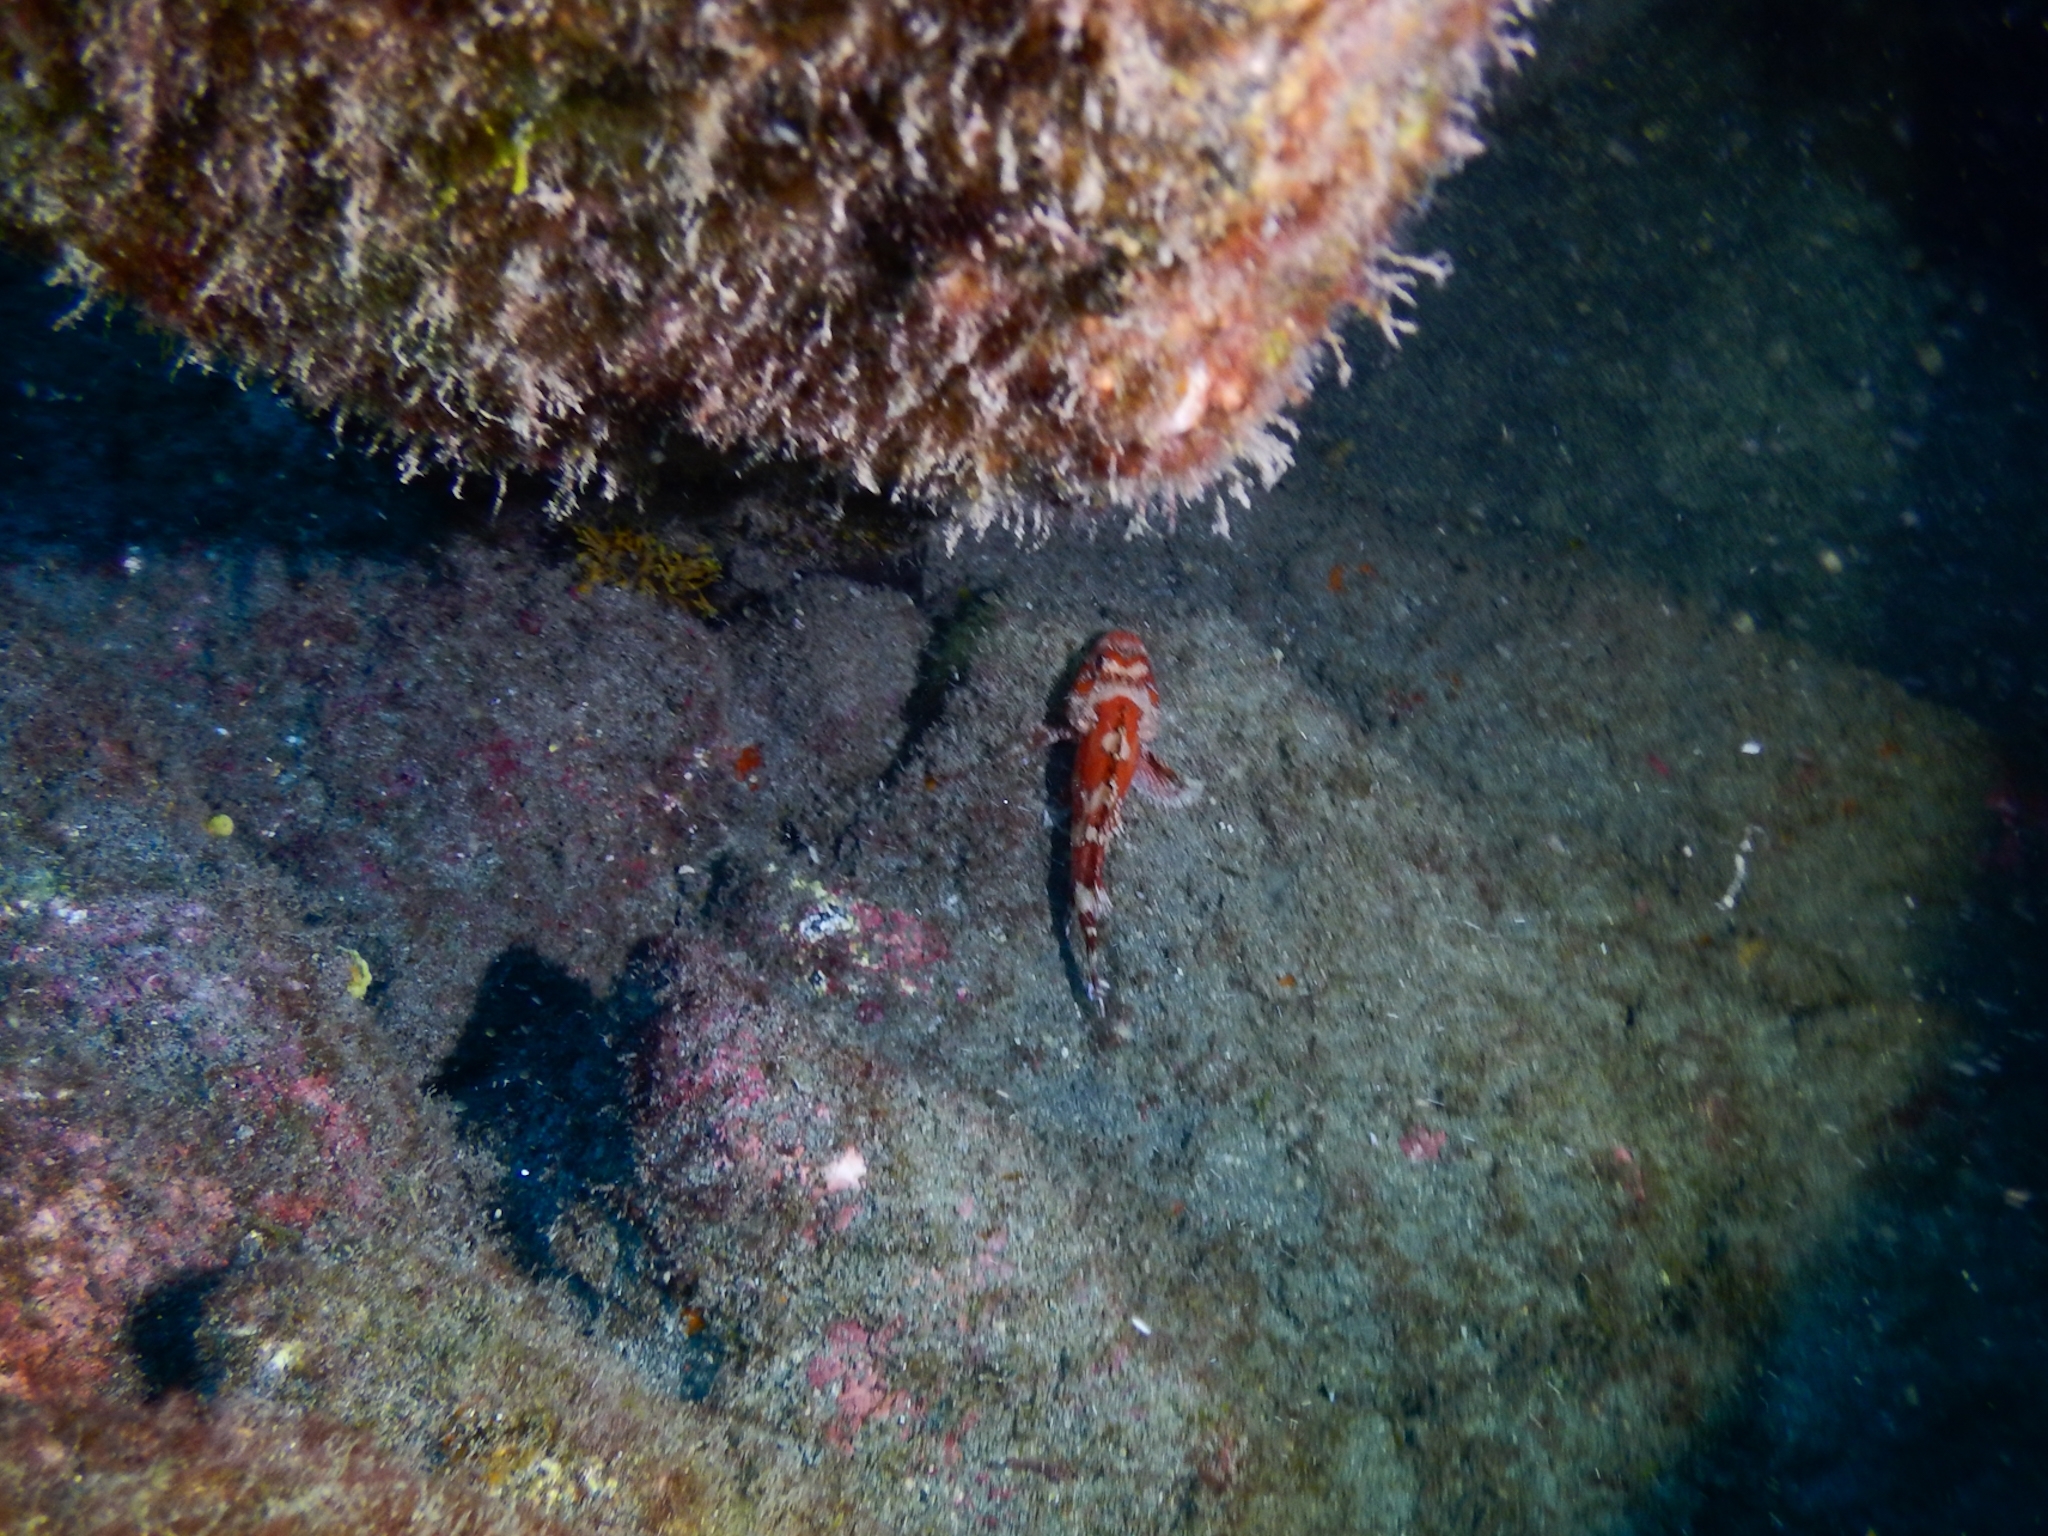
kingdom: Animalia
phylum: Chordata
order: Scorpaeniformes
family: Scorpaenidae
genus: Scorpaena
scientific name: Scorpaena maderensis
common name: Madeira rockfish
